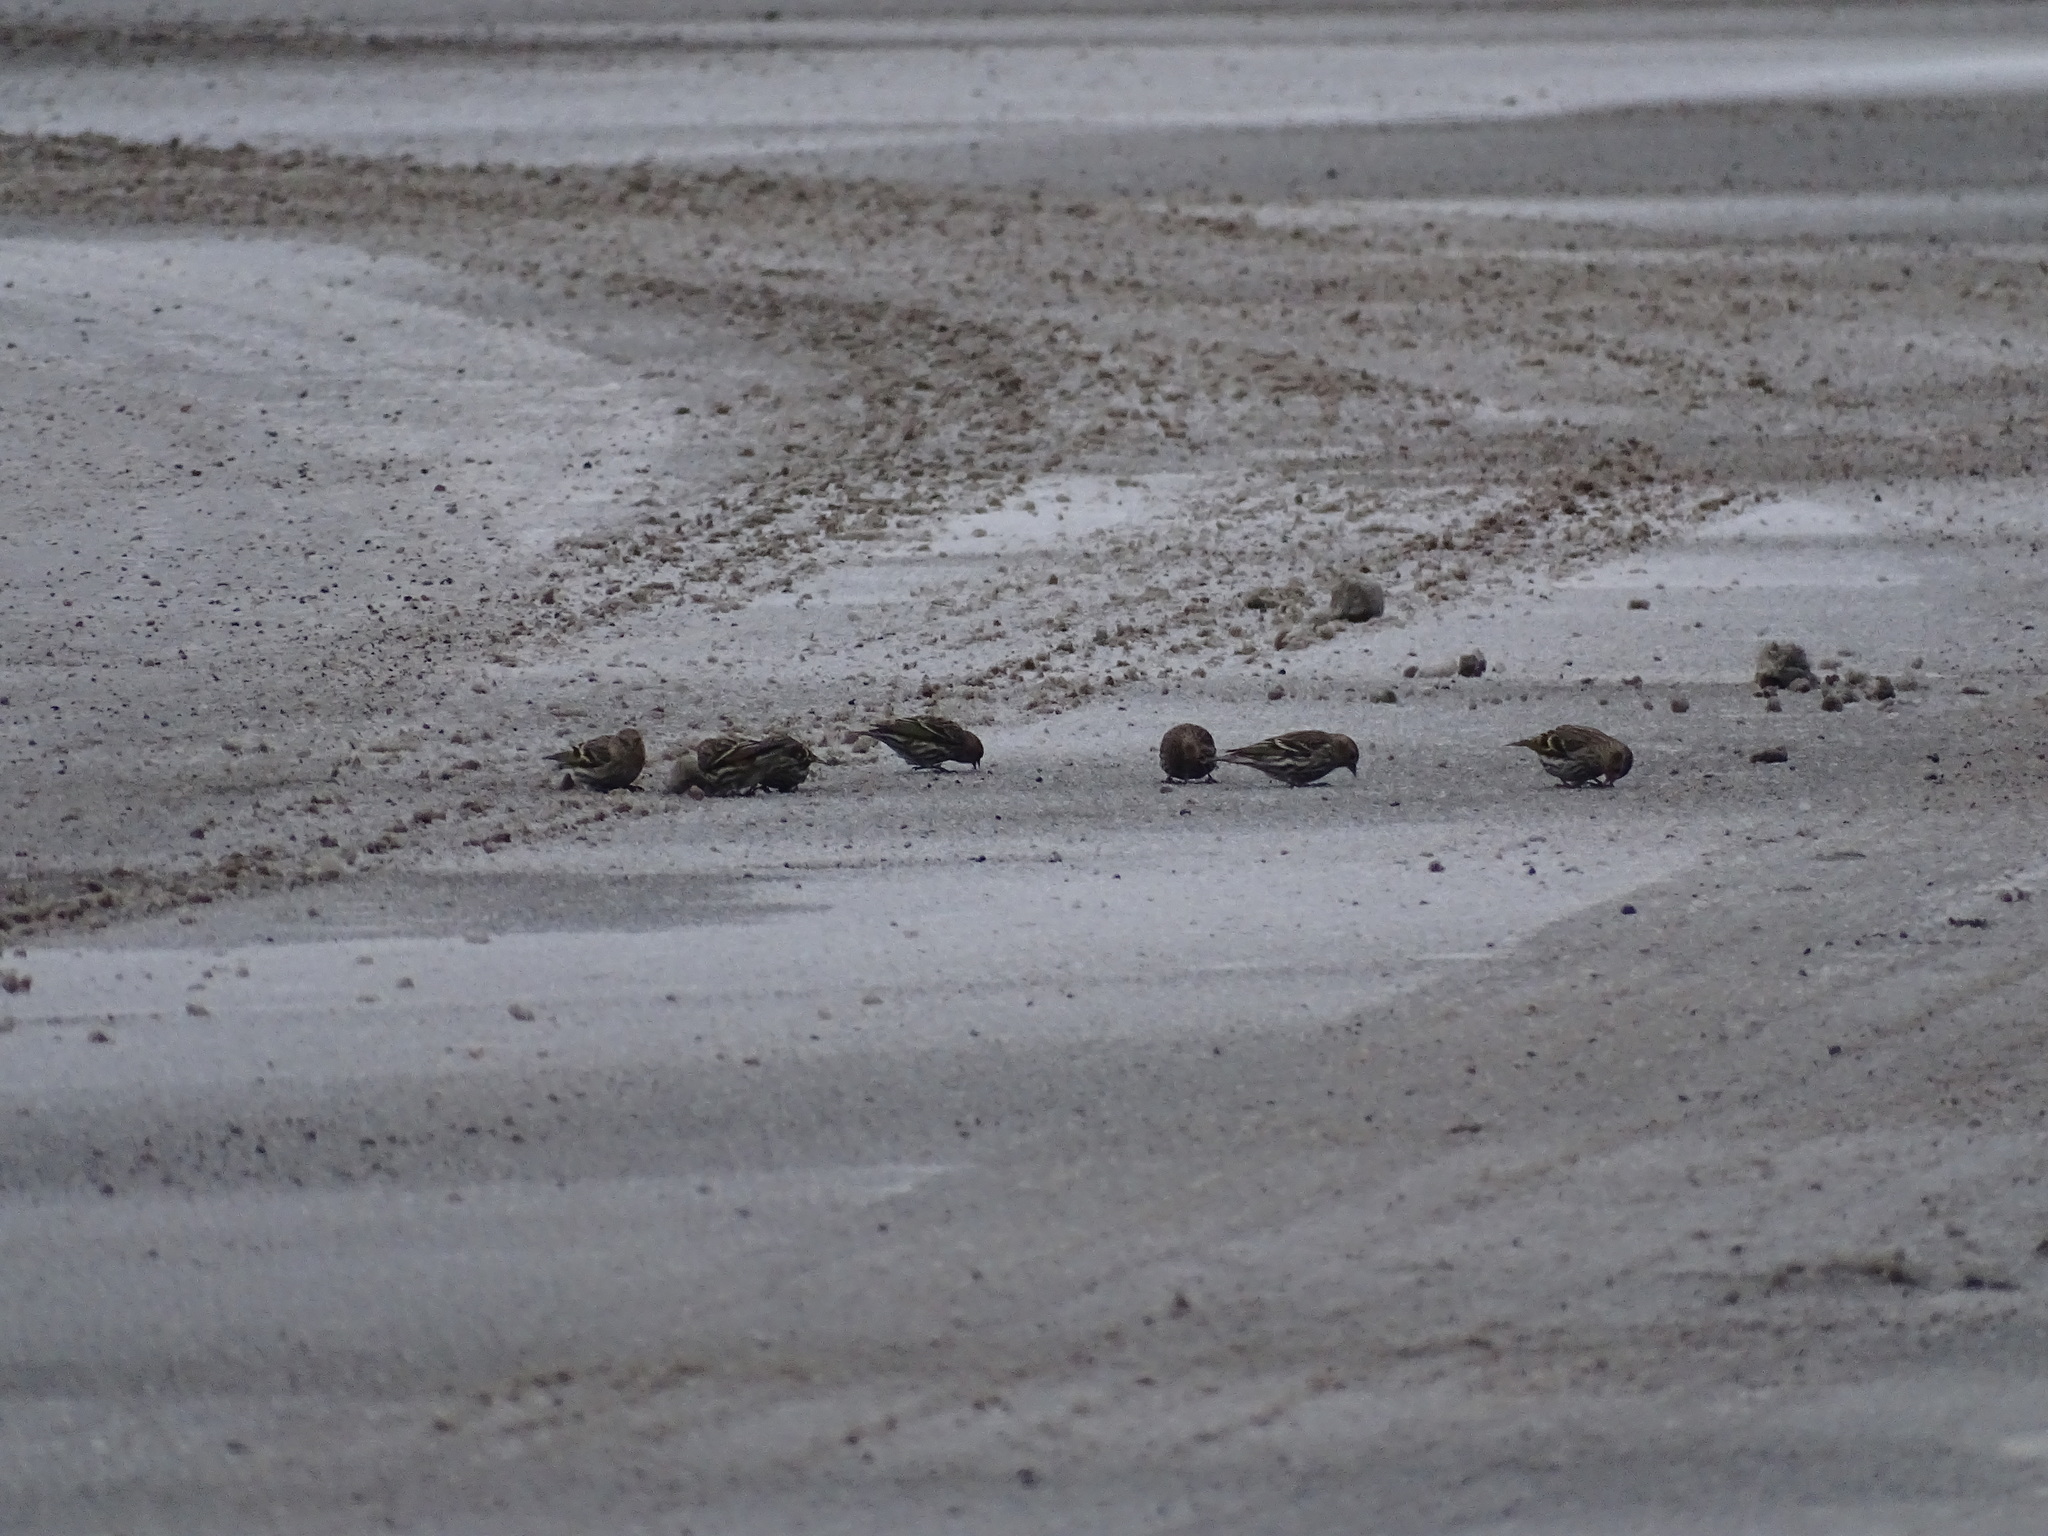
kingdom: Animalia
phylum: Chordata
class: Aves
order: Passeriformes
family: Fringillidae
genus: Spinus
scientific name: Spinus pinus
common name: Pine siskin
